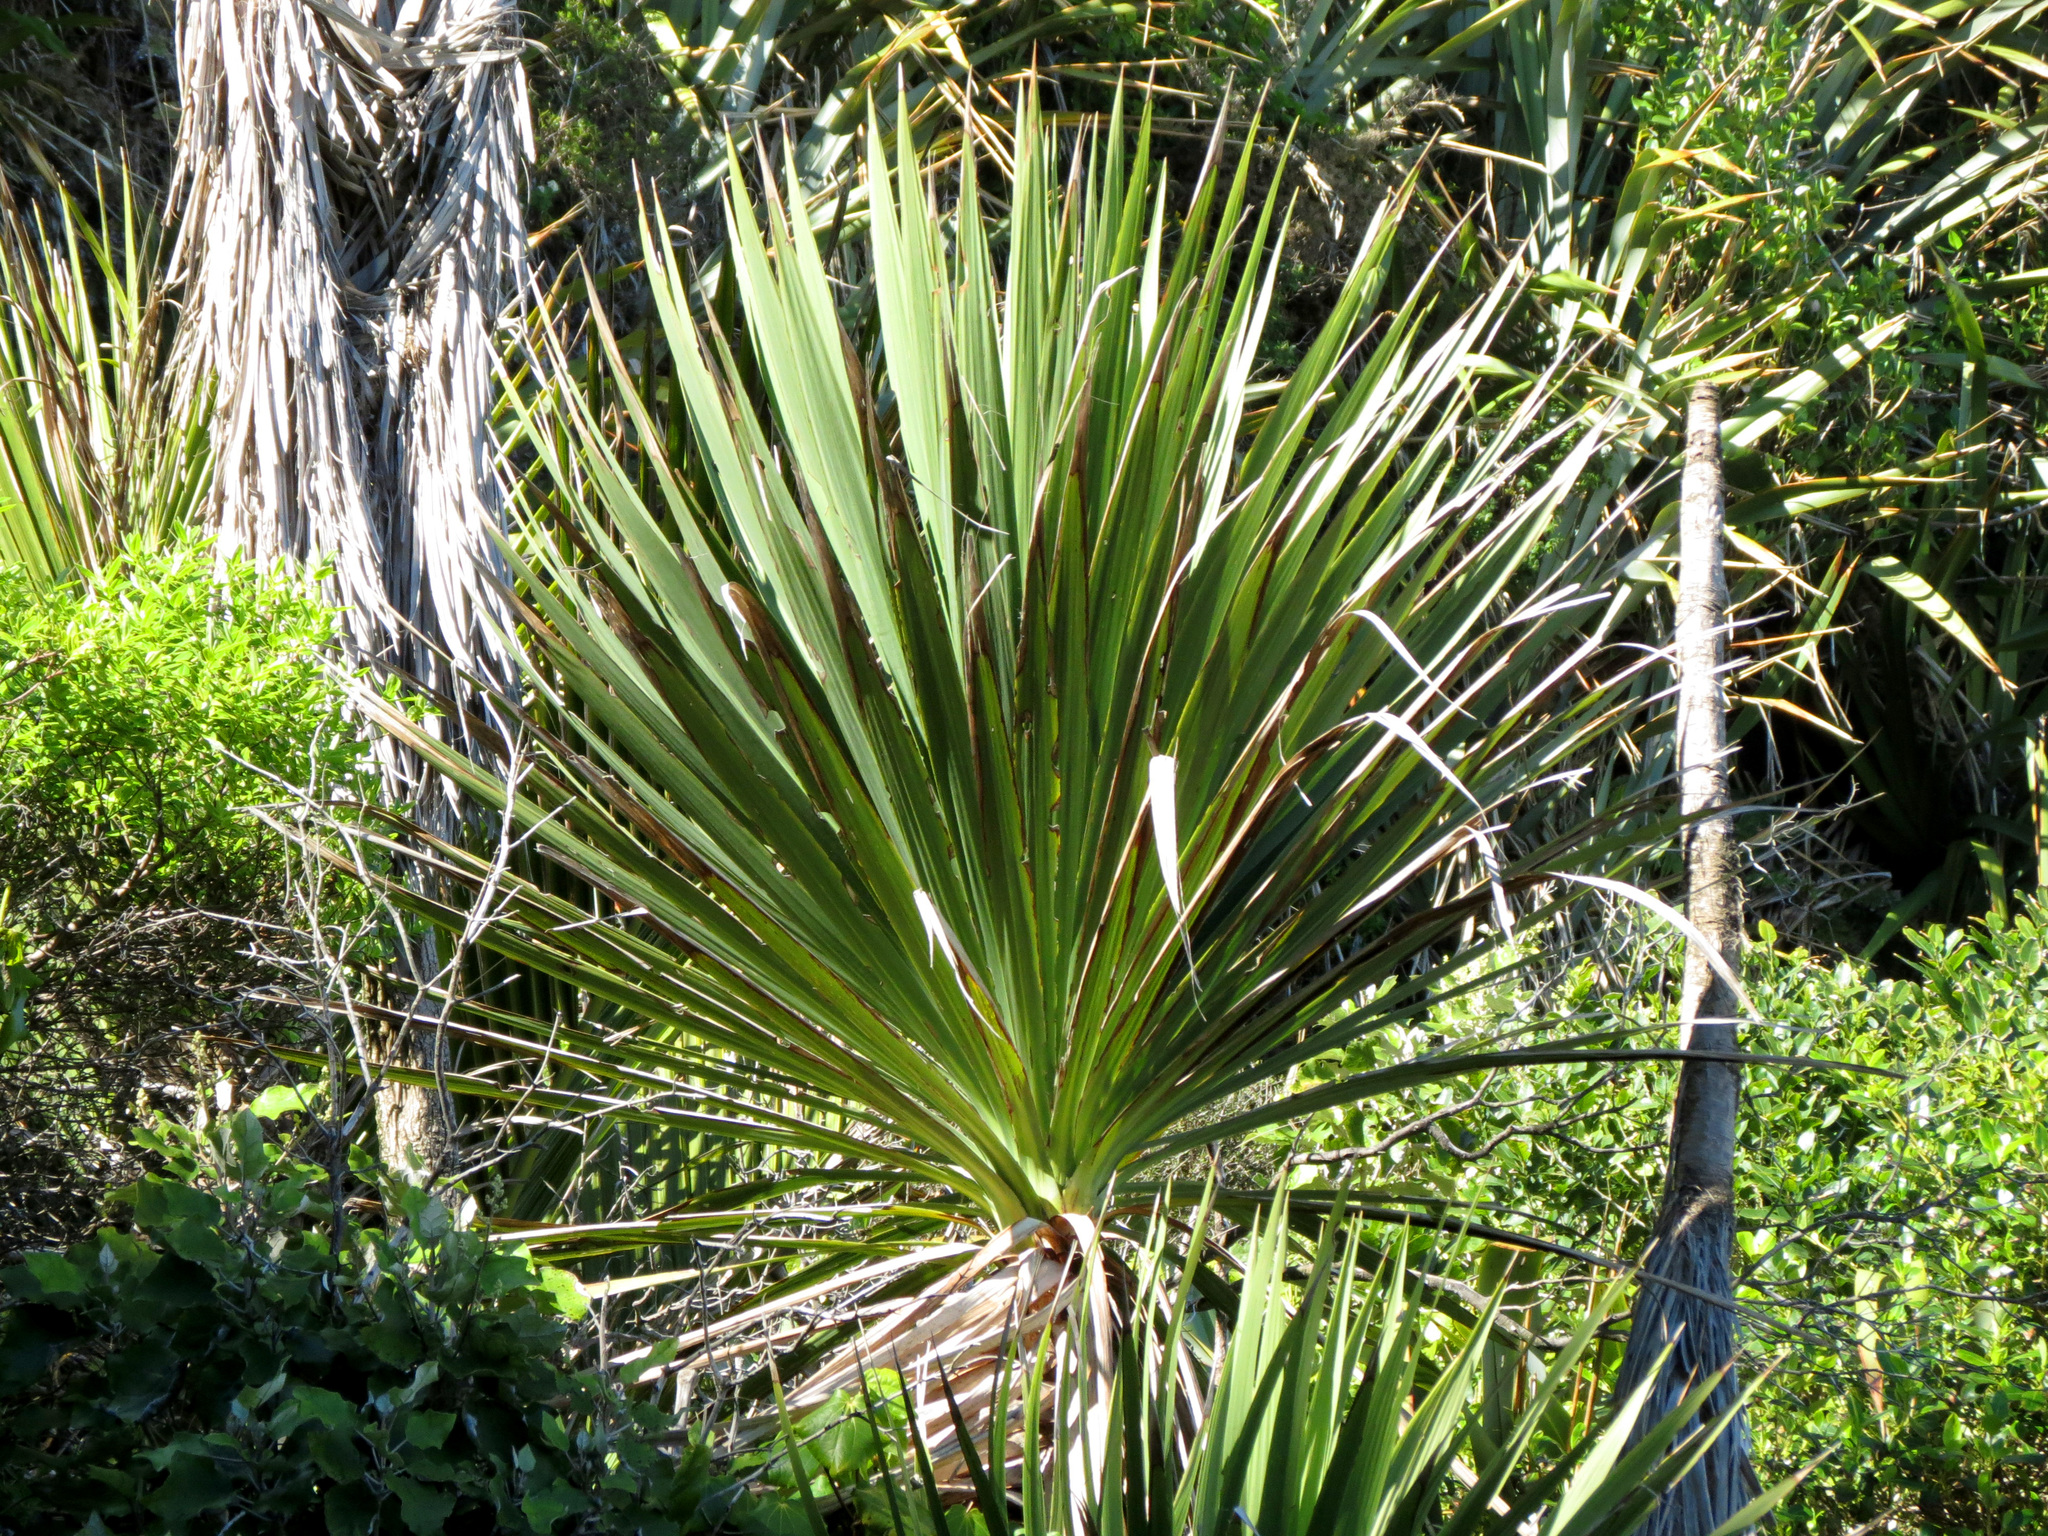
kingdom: Plantae
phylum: Tracheophyta
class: Liliopsida
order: Asparagales
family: Asparagaceae
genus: Cordyline
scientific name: Cordyline australis
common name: Cabbage-palm
